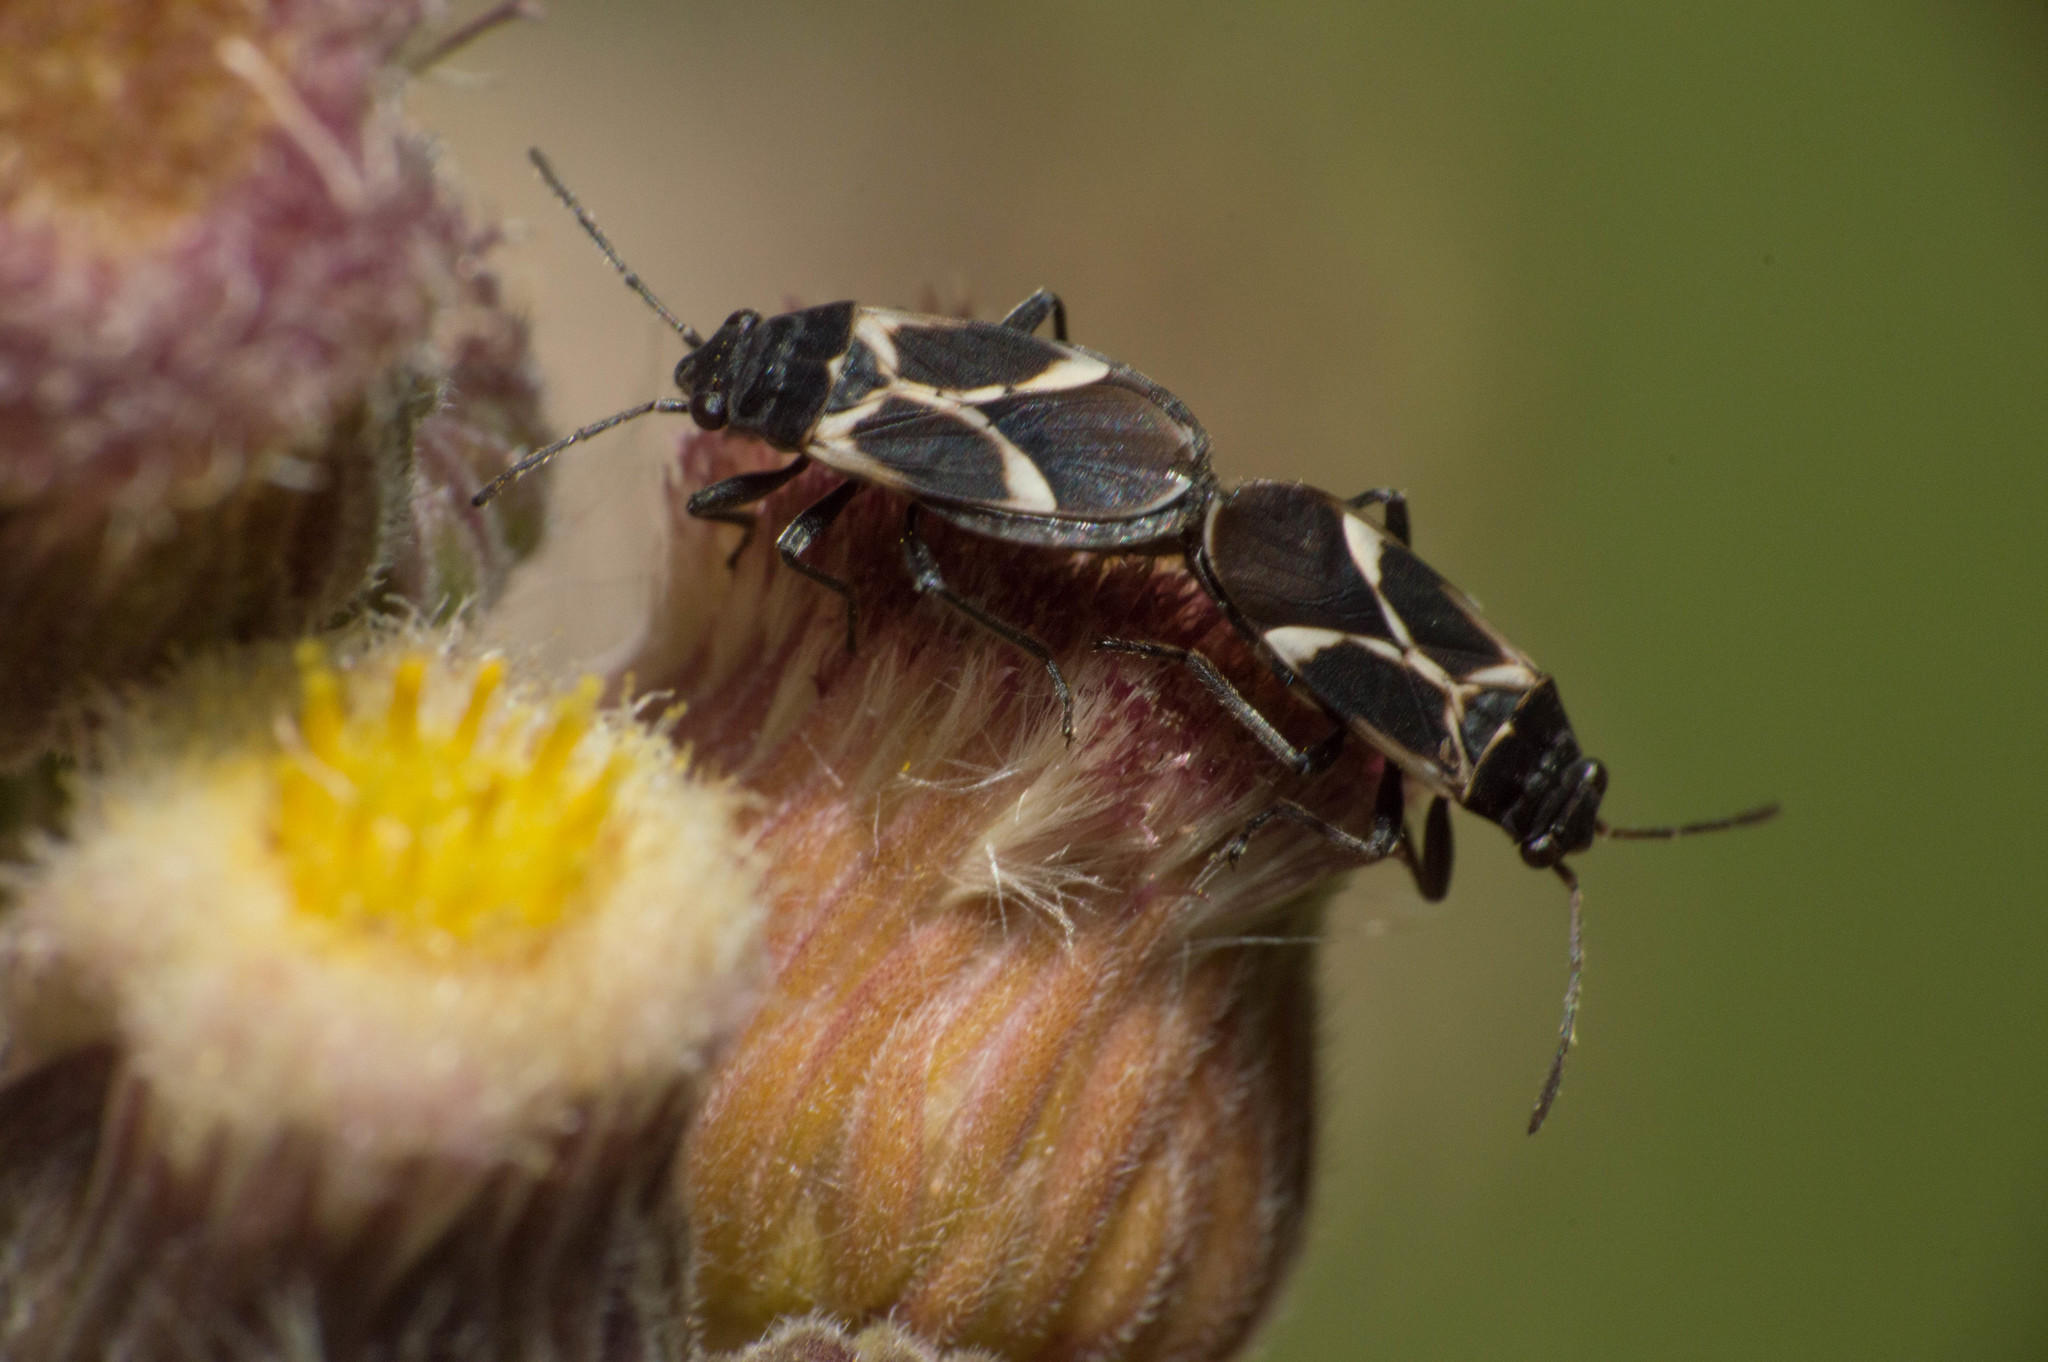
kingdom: Animalia
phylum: Arthropoda
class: Insecta
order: Hemiptera
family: Lygaeidae
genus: Ochrimnus
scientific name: Ochrimnus cinctipennis
